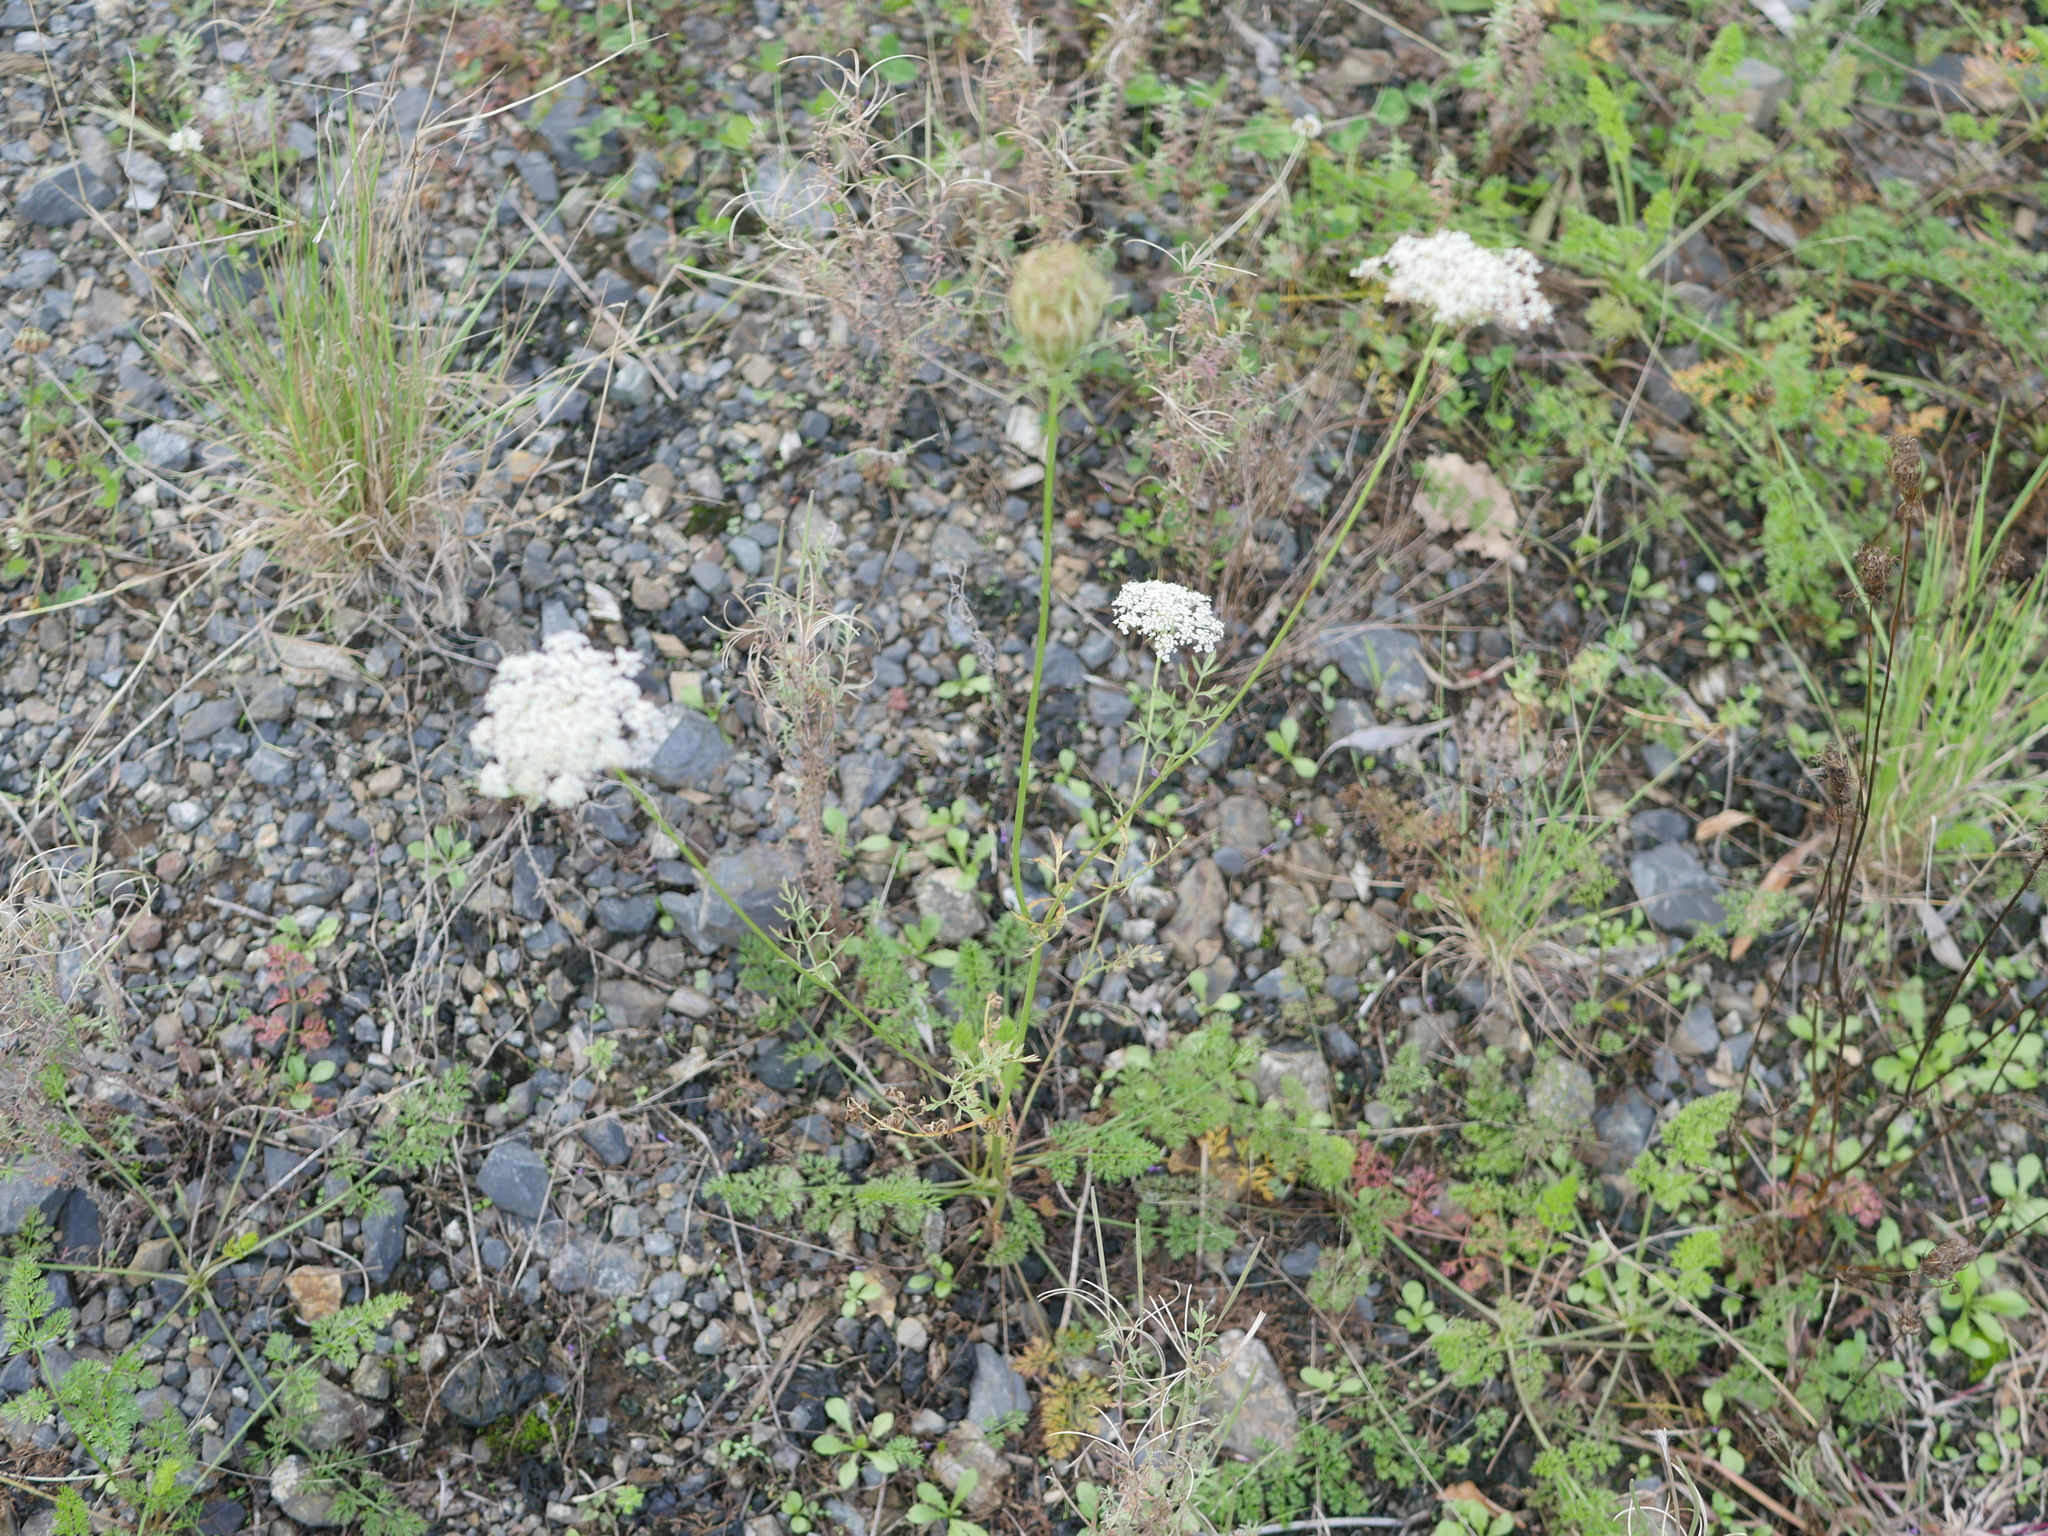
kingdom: Plantae
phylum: Tracheophyta
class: Magnoliopsida
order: Apiales
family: Apiaceae
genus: Daucus
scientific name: Daucus carota
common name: Wild carrot
